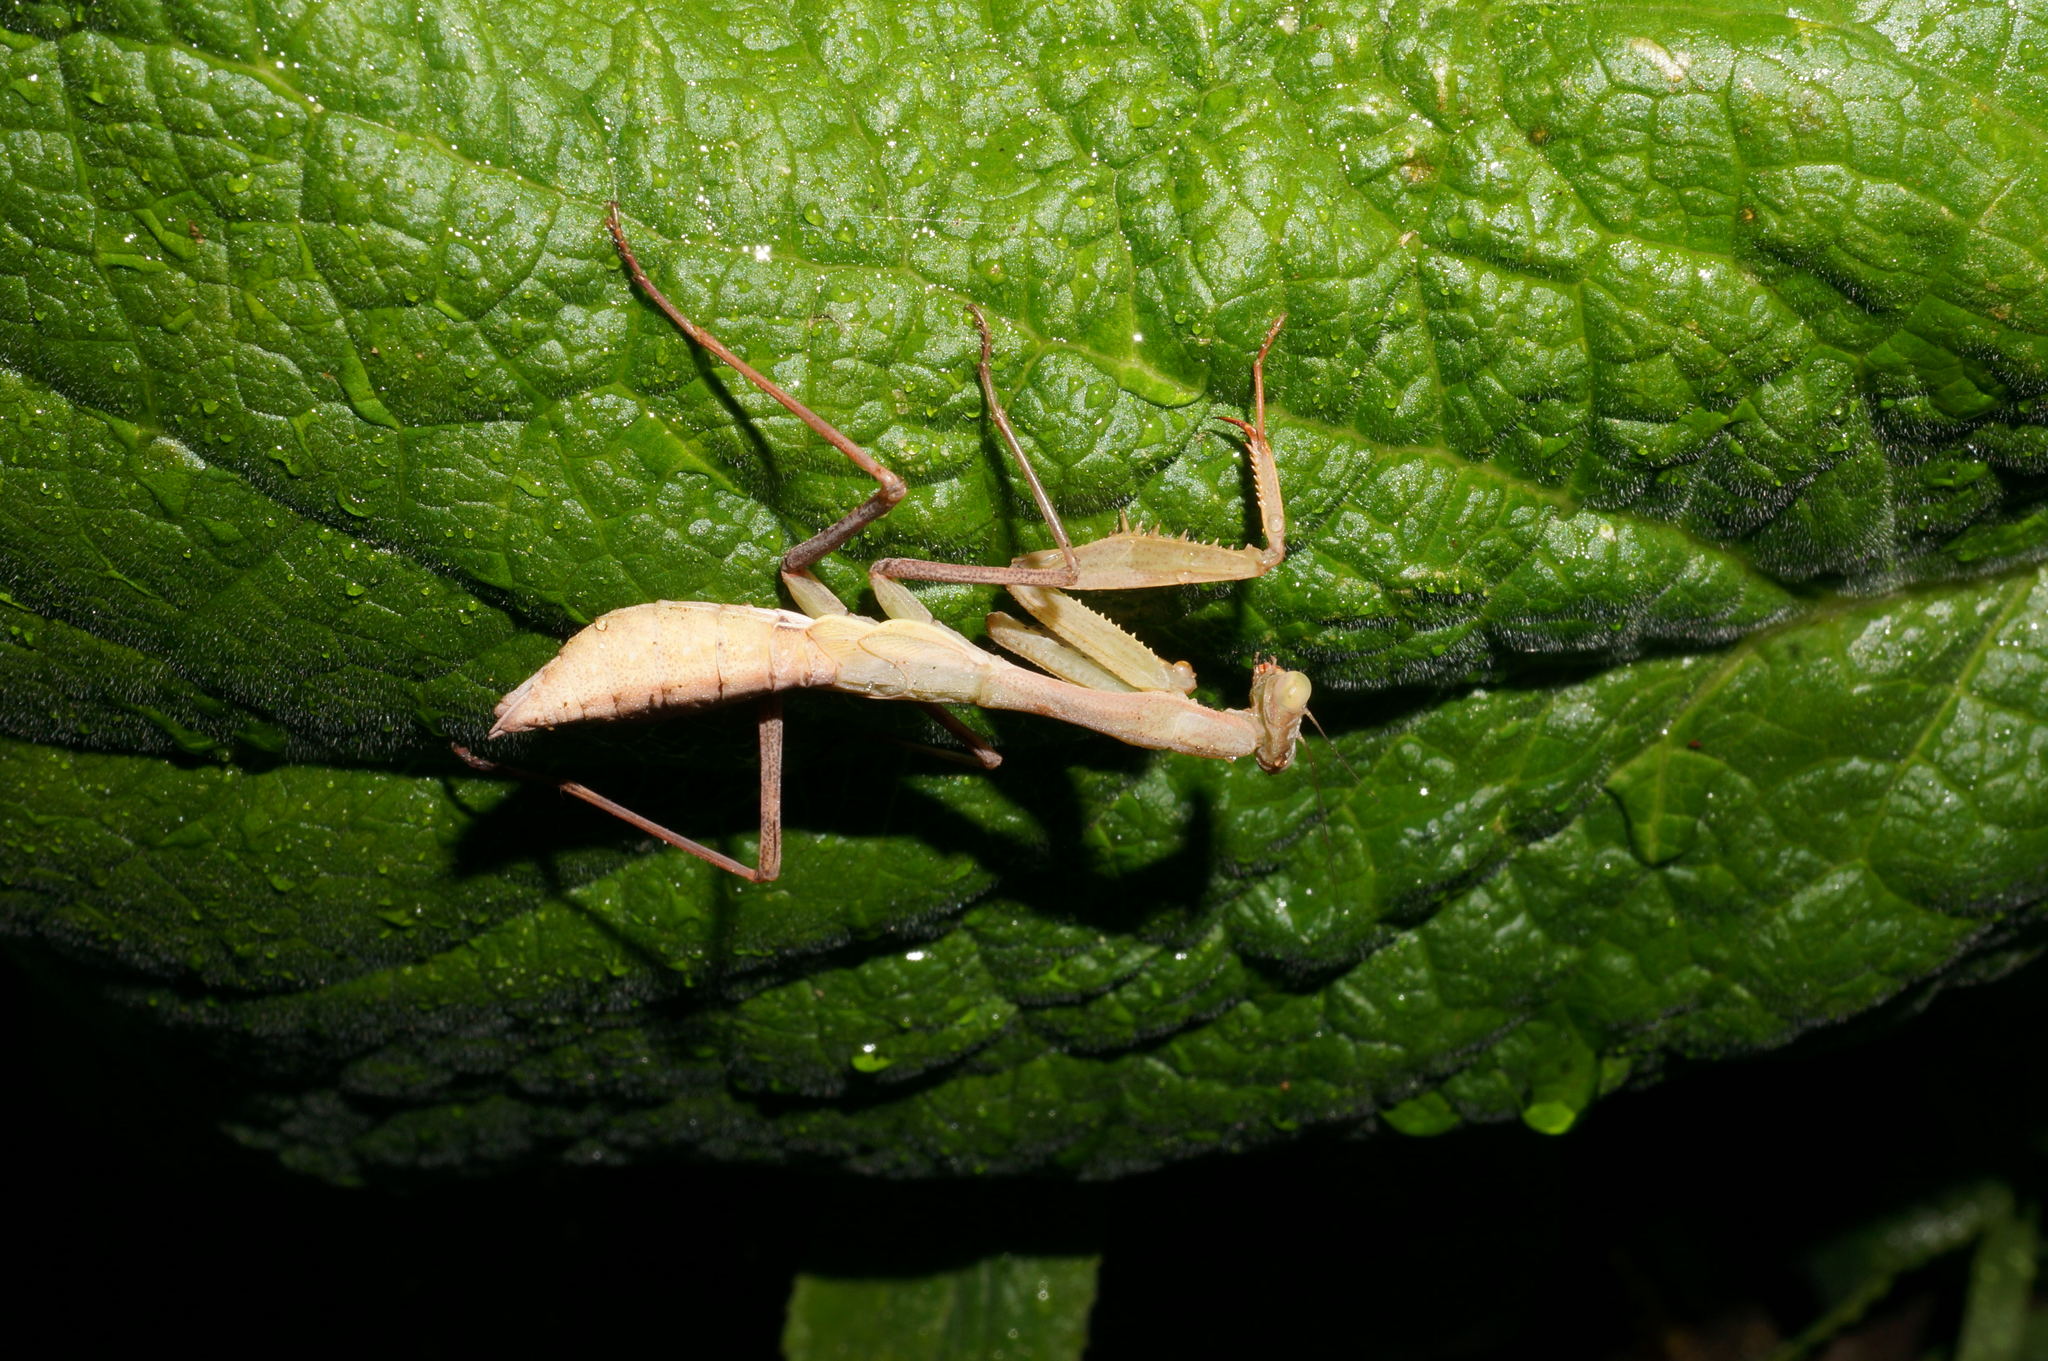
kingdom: Animalia
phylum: Arthropoda
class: Insecta
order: Mantodea
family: Miomantidae
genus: Miomantis
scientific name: Miomantis caffra
